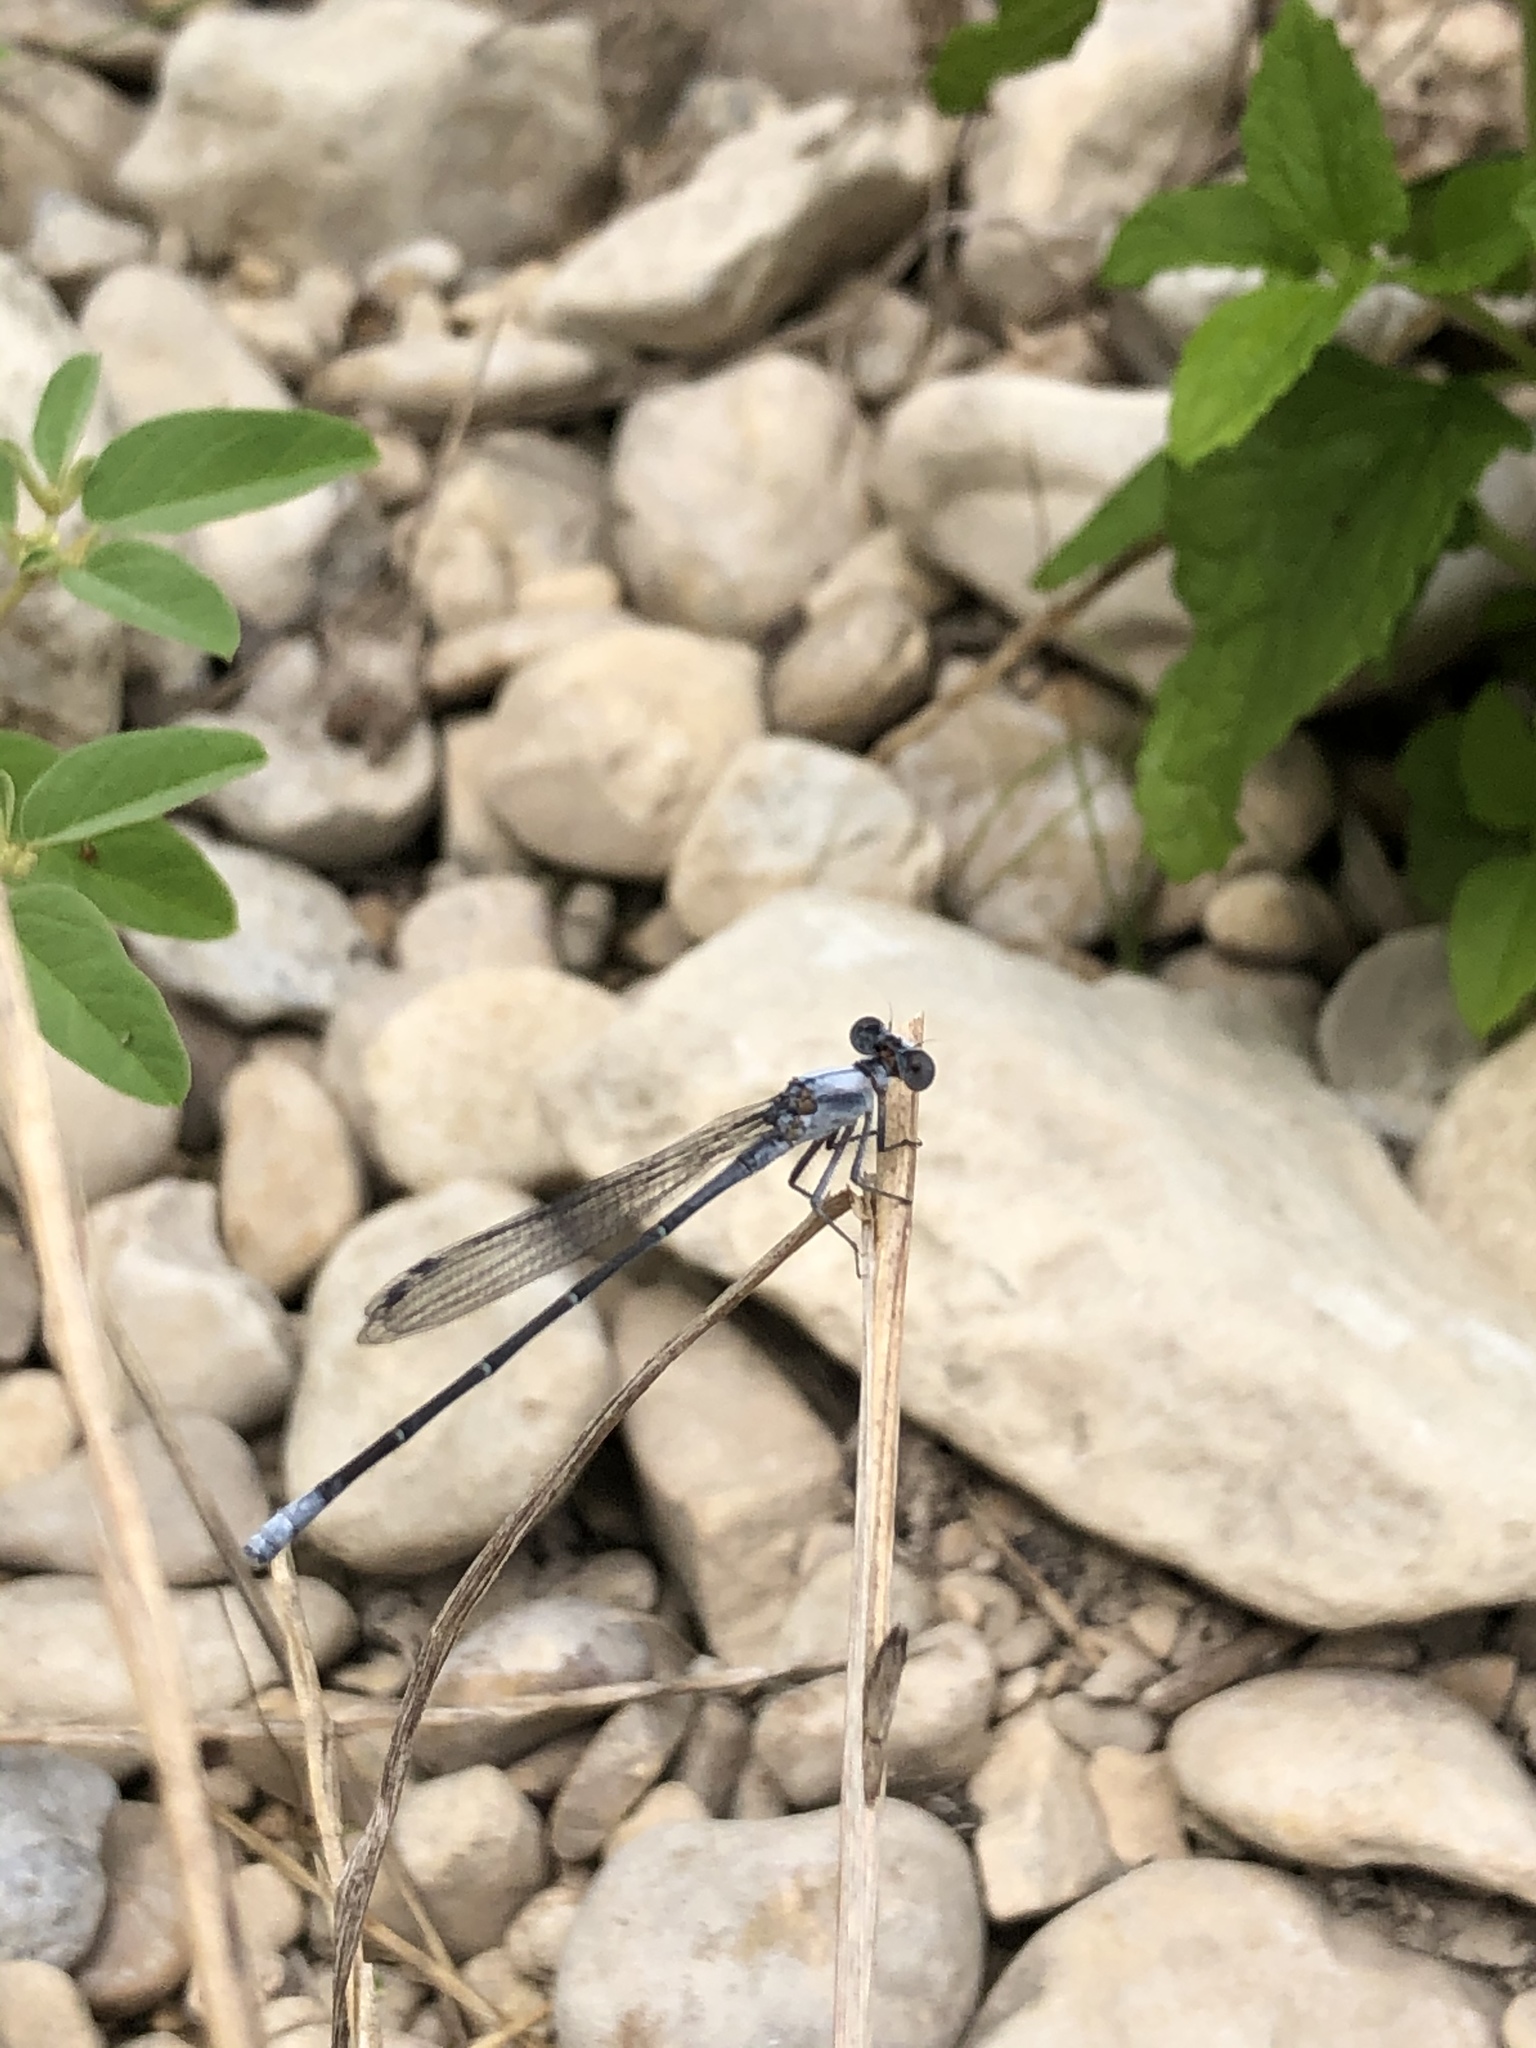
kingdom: Animalia
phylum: Arthropoda
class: Insecta
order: Odonata
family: Coenagrionidae
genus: Argia
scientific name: Argia moesta
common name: Powdered dancer
